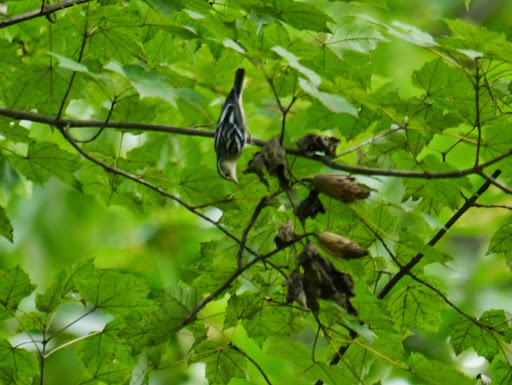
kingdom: Animalia
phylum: Chordata
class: Aves
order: Passeriformes
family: Parulidae
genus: Mniotilta
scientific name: Mniotilta varia
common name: Black-and-white warbler
